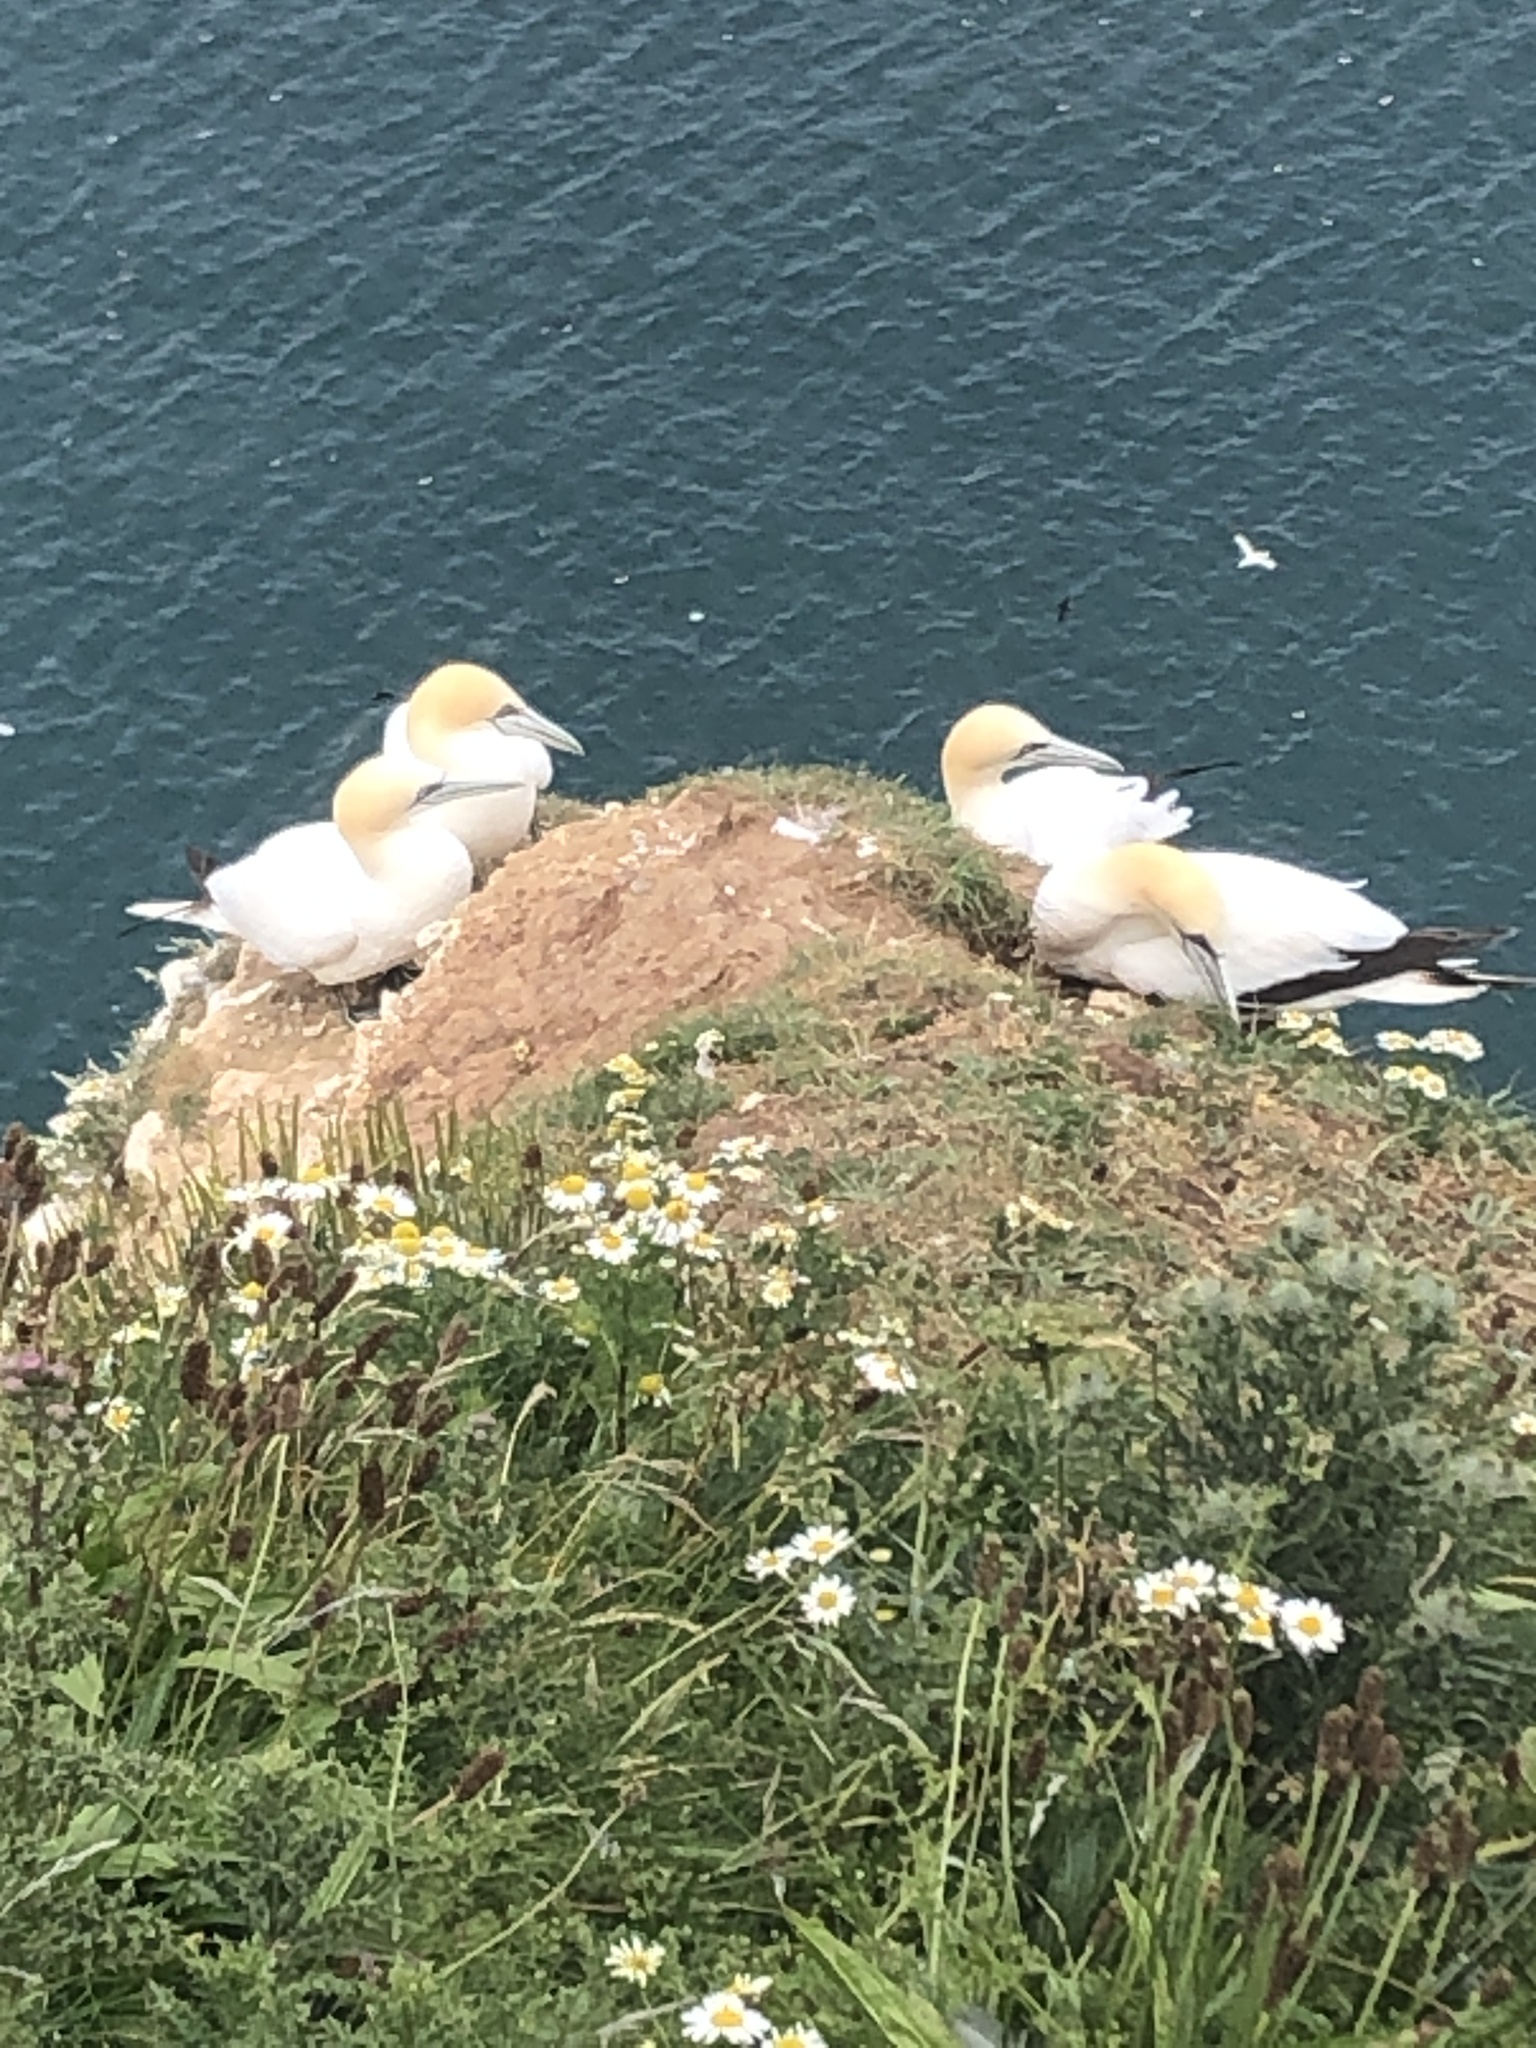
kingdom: Animalia
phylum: Chordata
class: Aves
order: Suliformes
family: Sulidae
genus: Morus
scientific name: Morus bassanus
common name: Northern gannet
